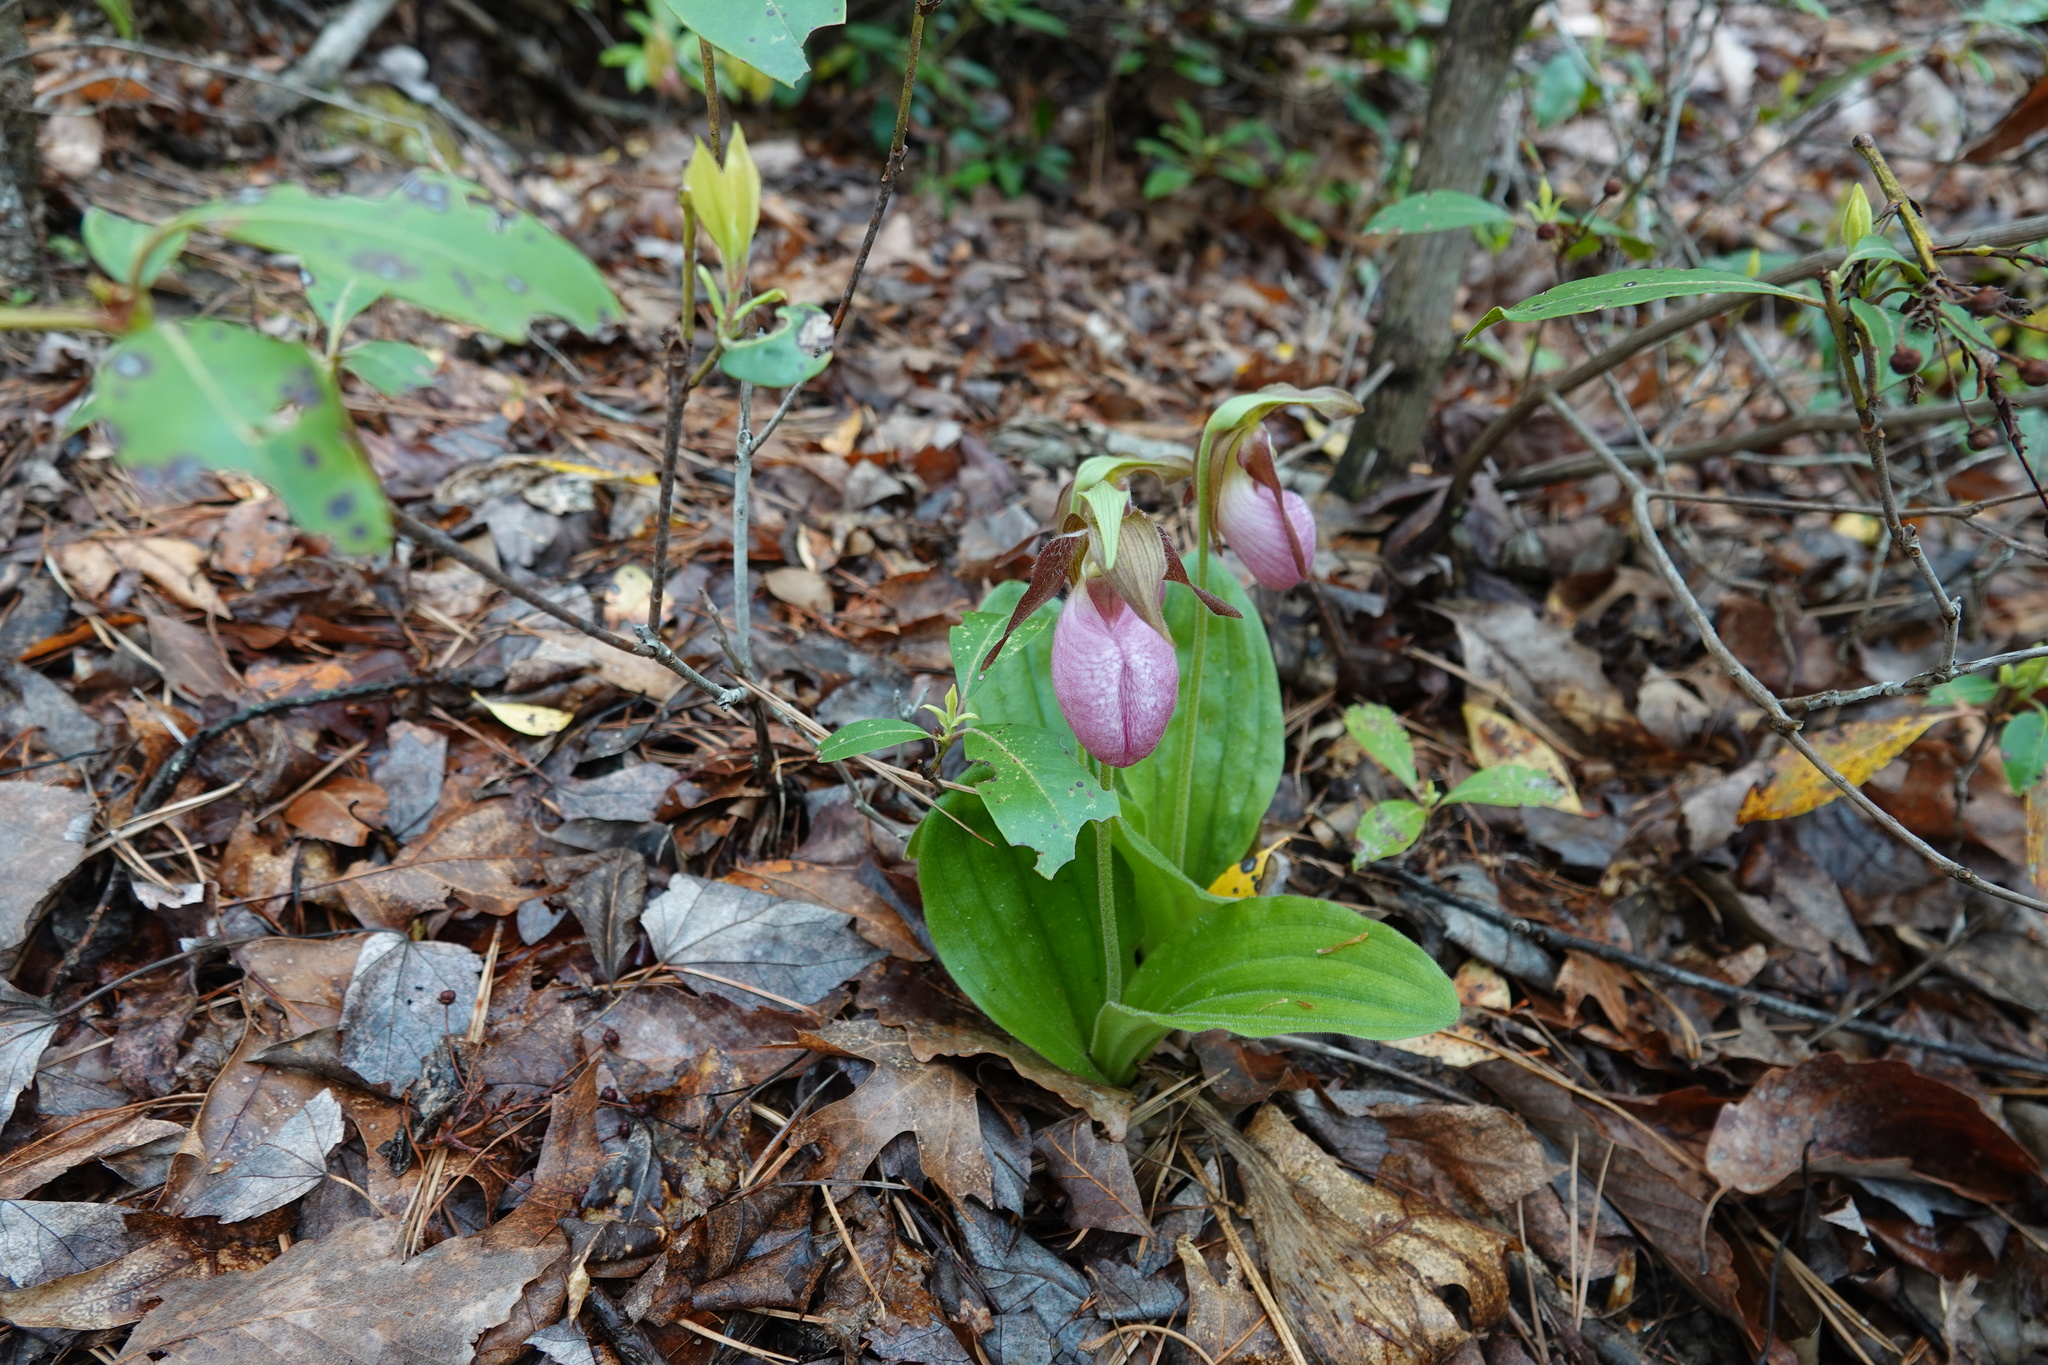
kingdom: Plantae
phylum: Tracheophyta
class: Liliopsida
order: Asparagales
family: Orchidaceae
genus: Cypripedium
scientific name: Cypripedium acaule
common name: Pink lady's-slipper
